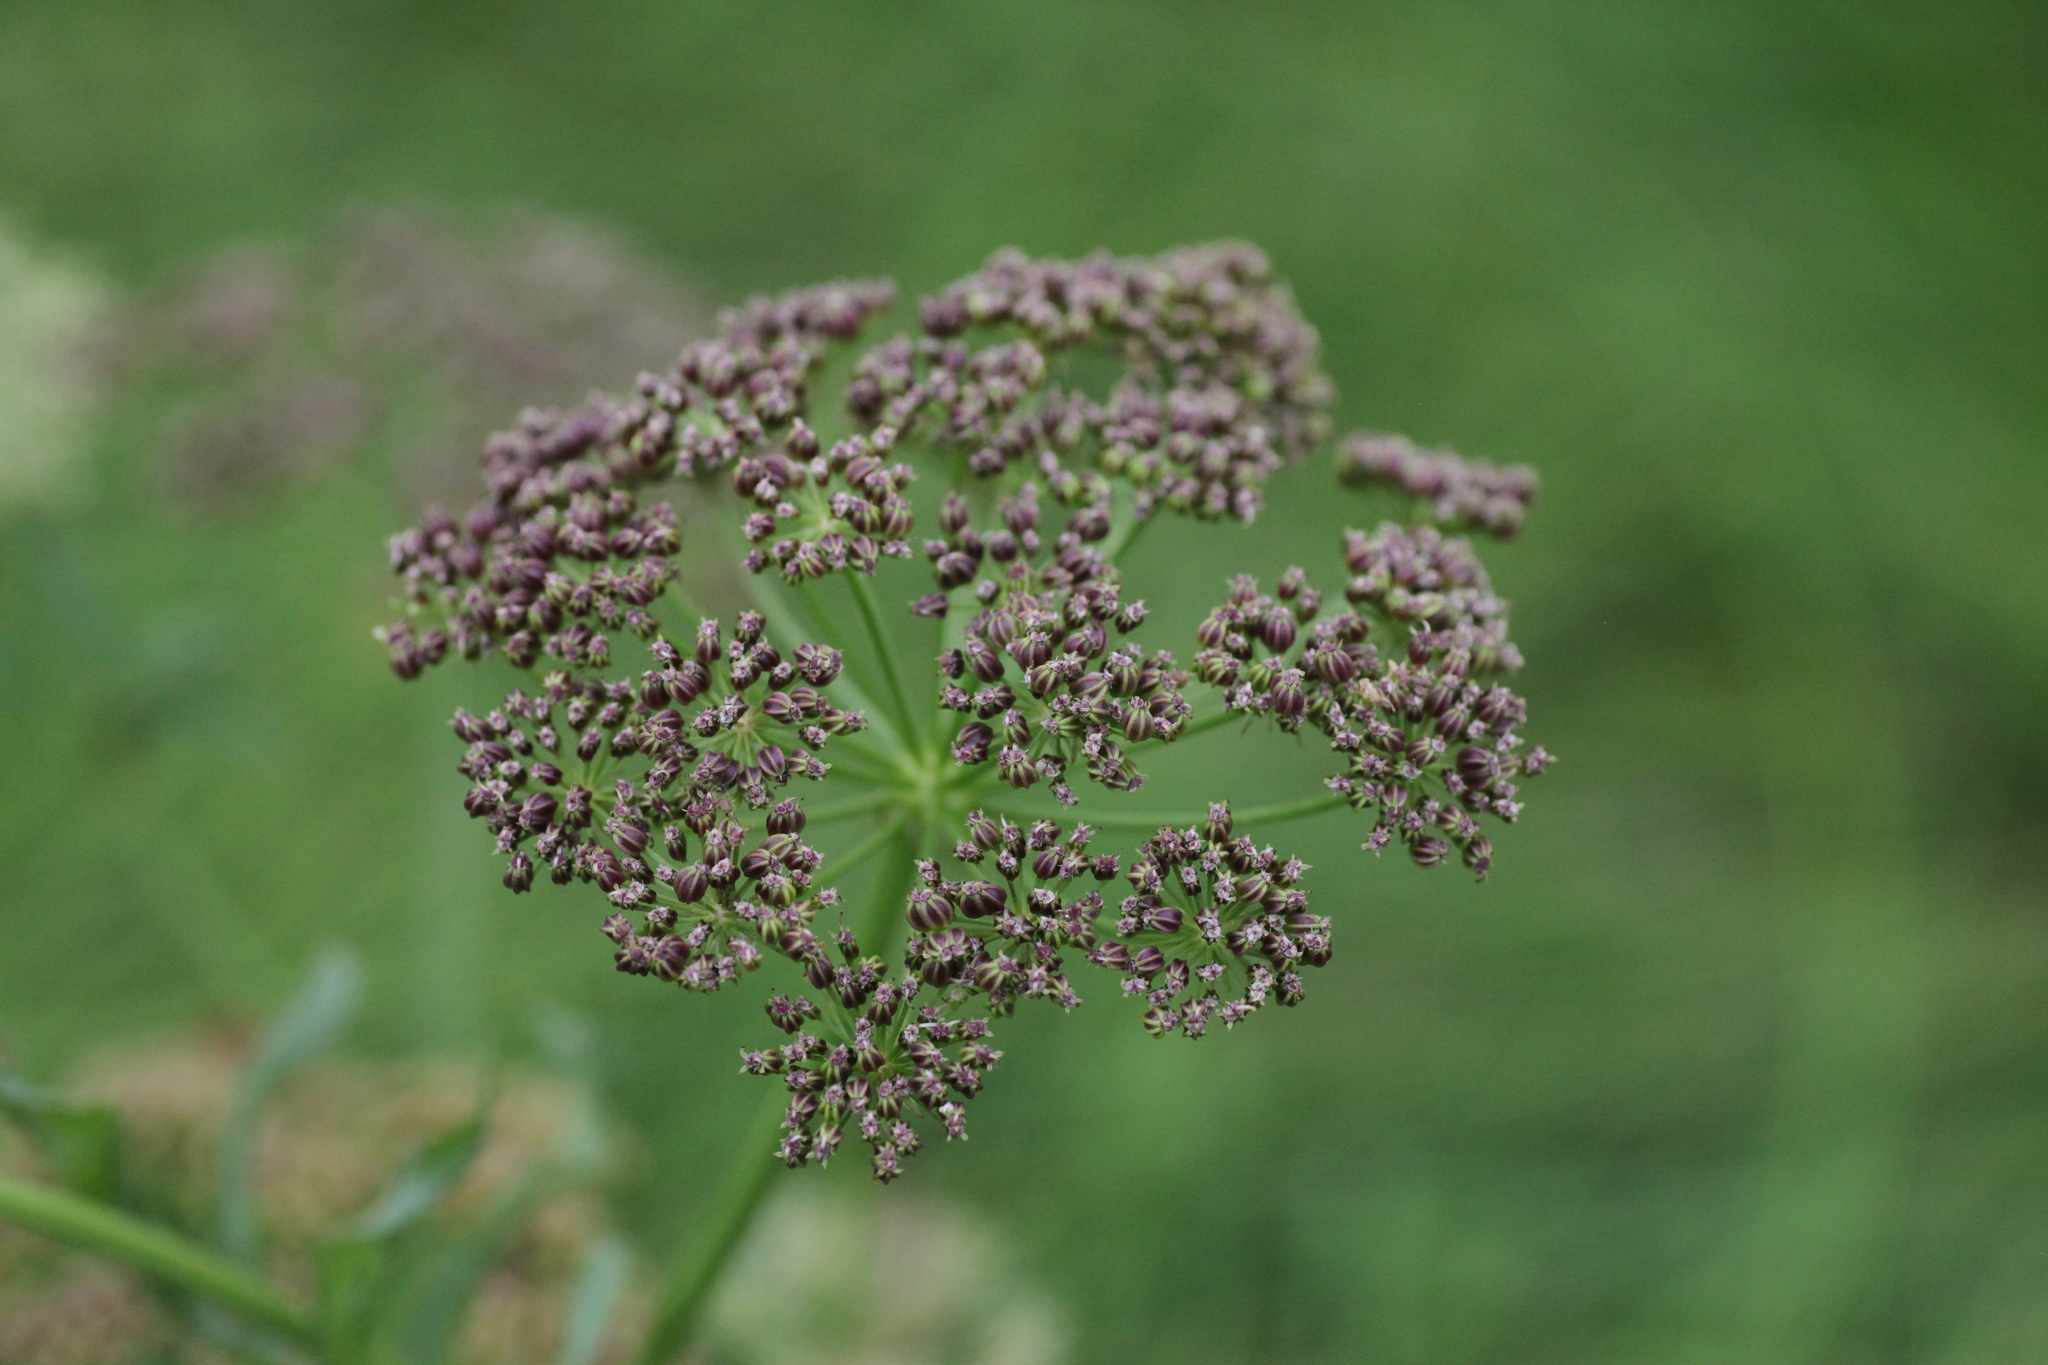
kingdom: Plantae
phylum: Tracheophyta
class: Magnoliopsida
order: Apiales
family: Apiaceae
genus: Sium
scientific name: Sium latifolium
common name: Greater water-parsnip
